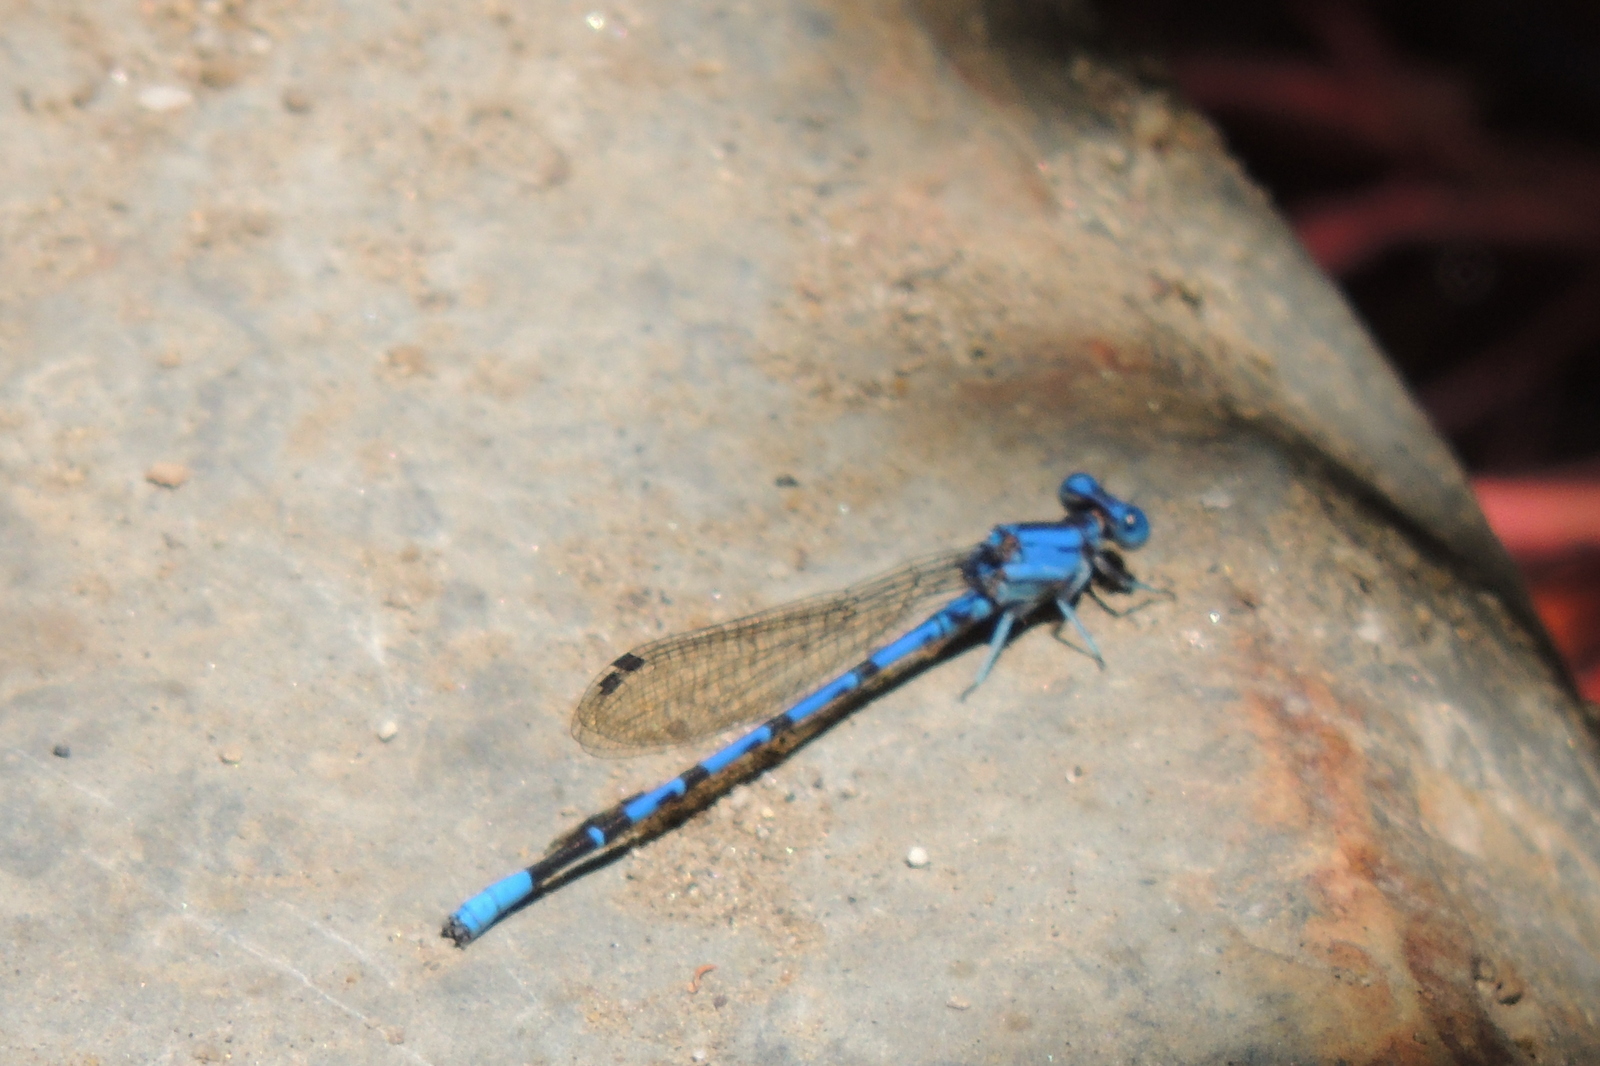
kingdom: Animalia
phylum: Arthropoda
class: Insecta
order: Odonata
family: Coenagrionidae
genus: Argia
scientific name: Argia vivida
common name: Vivid dancer
